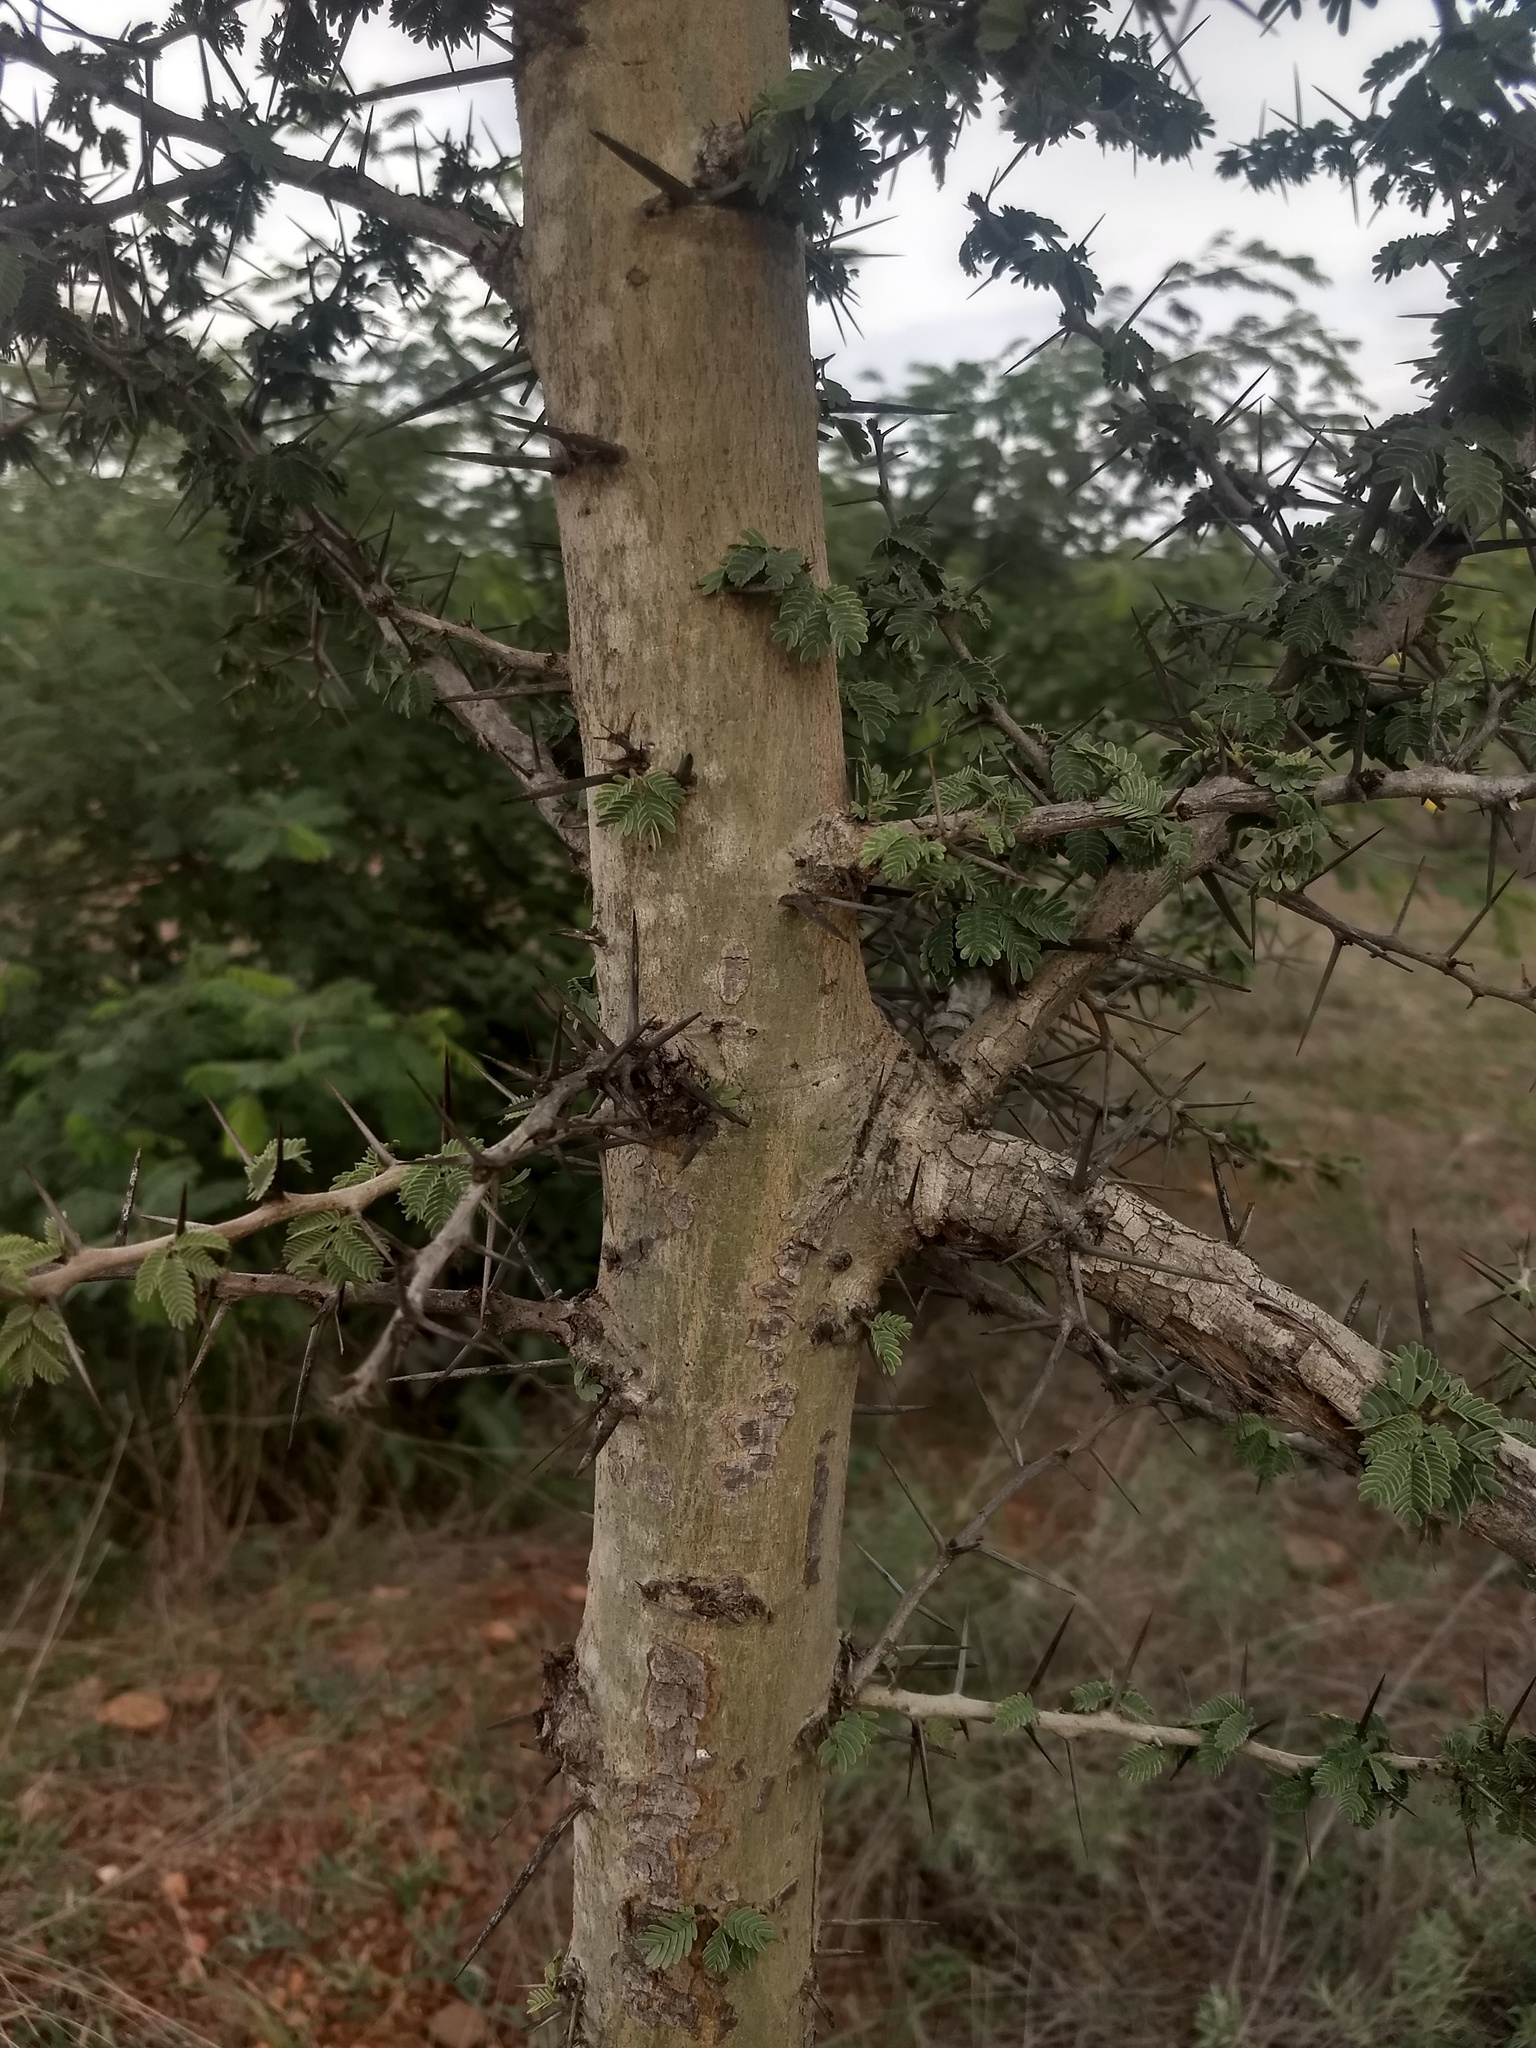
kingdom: Plantae
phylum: Tracheophyta
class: Magnoliopsida
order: Fabales
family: Fabaceae
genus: Vachellia
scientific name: Vachellia leucophloea
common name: Distiller's acacia
